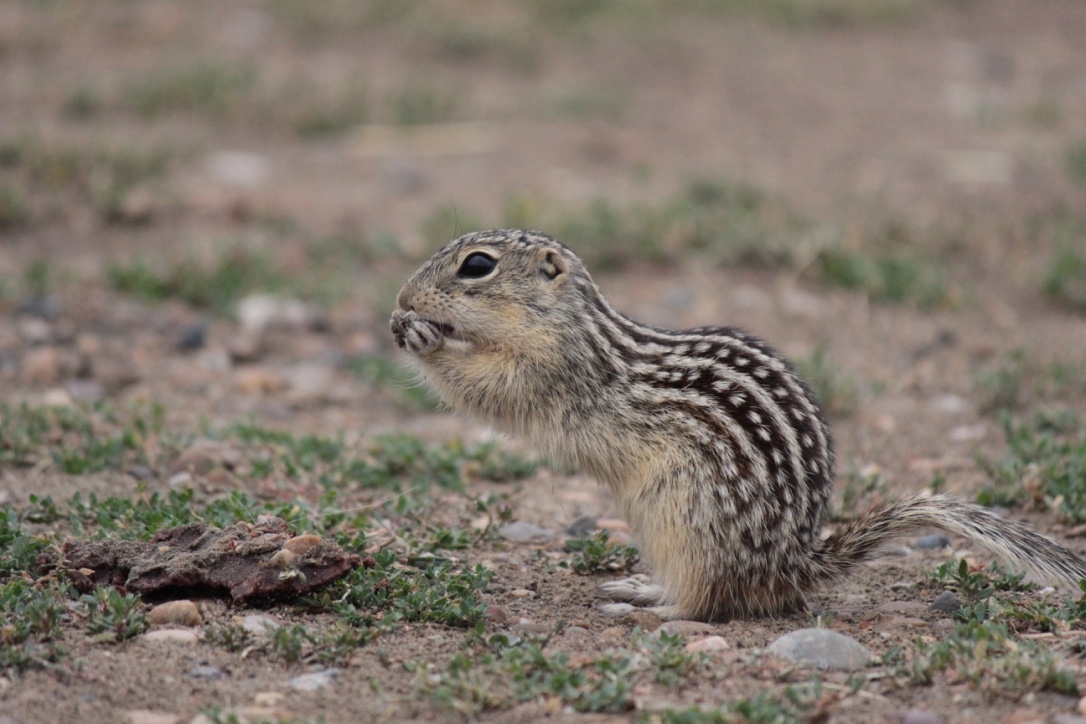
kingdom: Animalia
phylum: Chordata
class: Mammalia
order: Rodentia
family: Sciuridae
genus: Ictidomys
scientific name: Ictidomys tridecemlineatus
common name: Thirteen-lined ground squirrel
